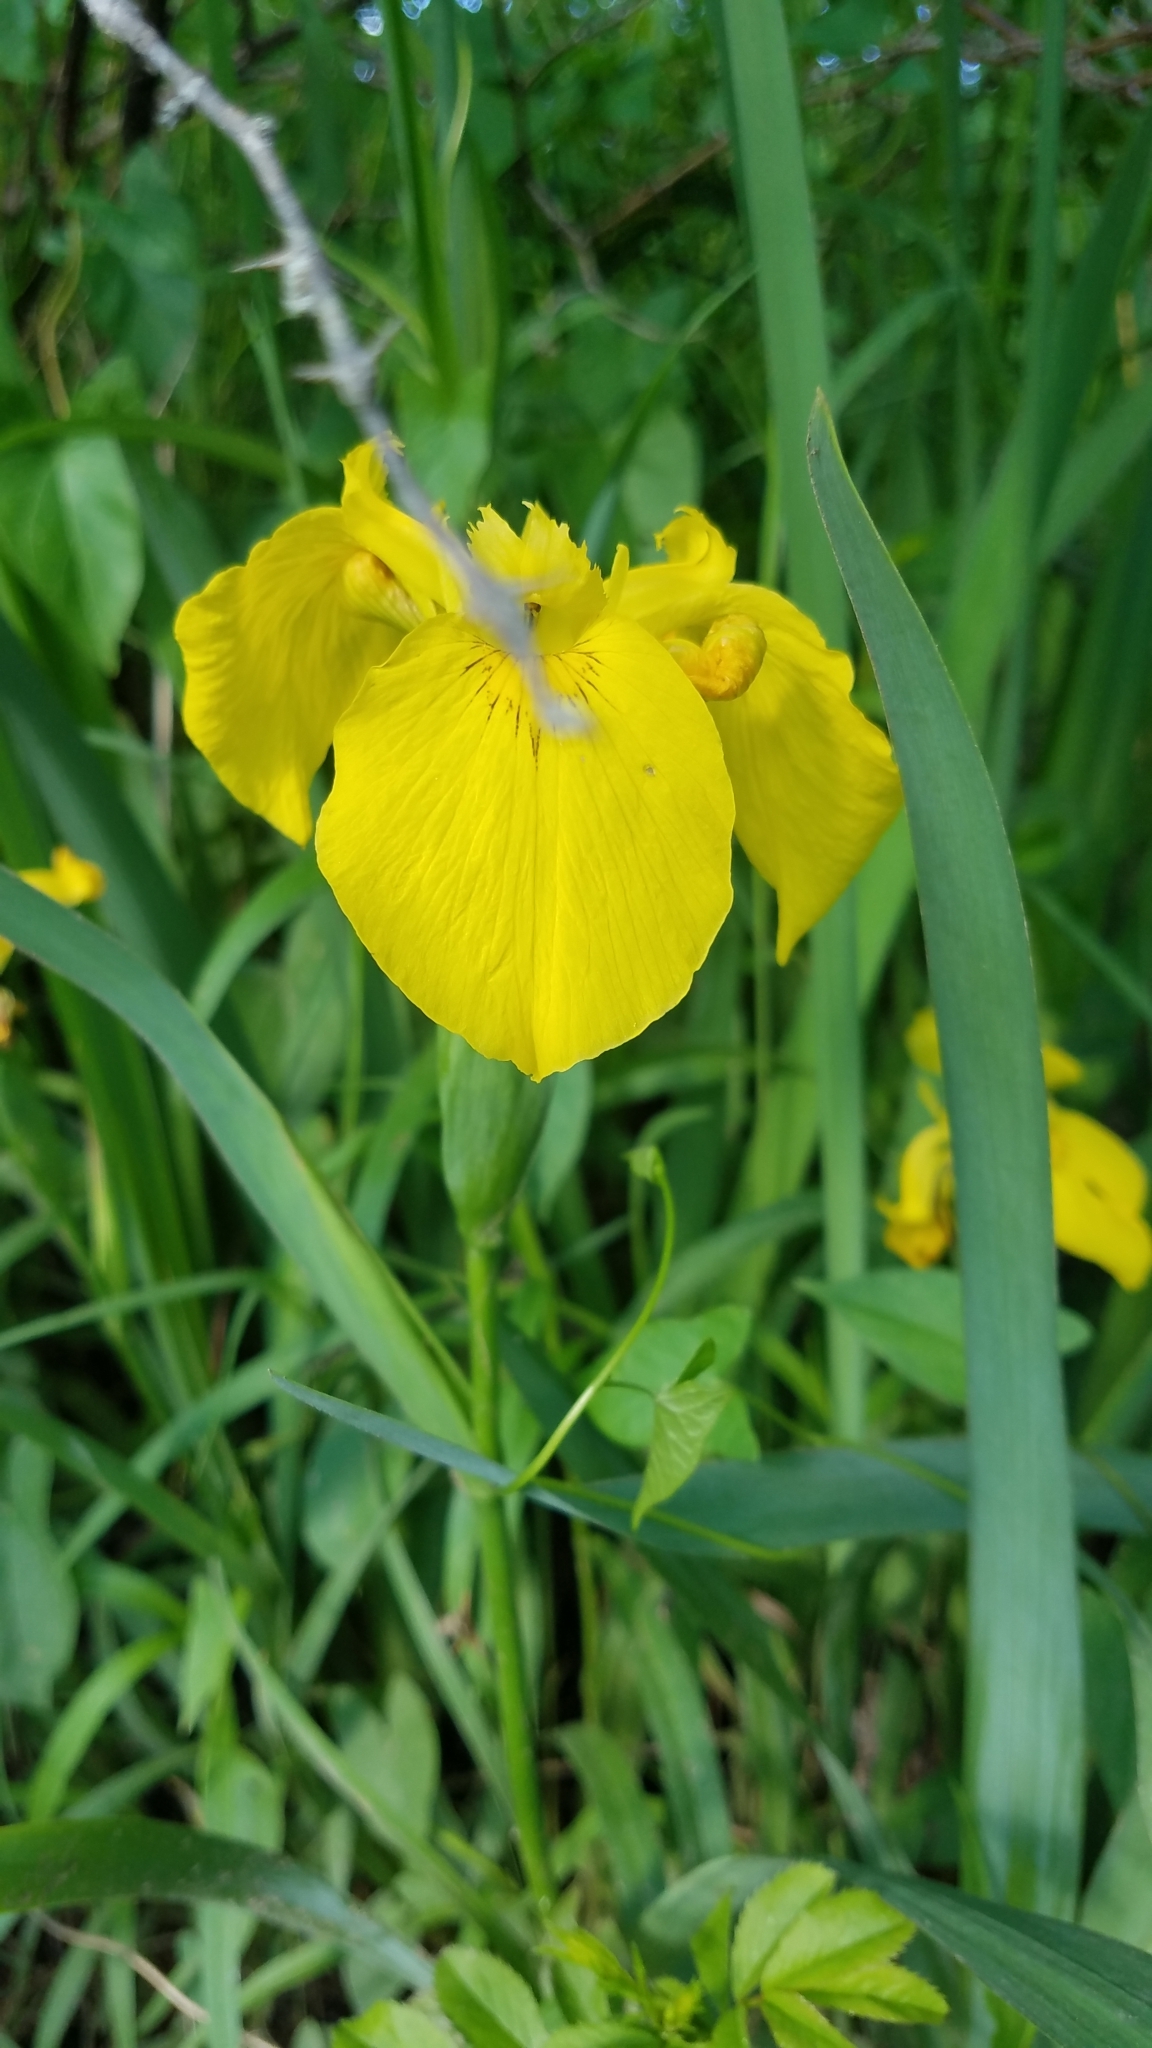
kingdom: Plantae
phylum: Tracheophyta
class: Liliopsida
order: Asparagales
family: Iridaceae
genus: Iris
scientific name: Iris pseudacorus
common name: Yellow flag
